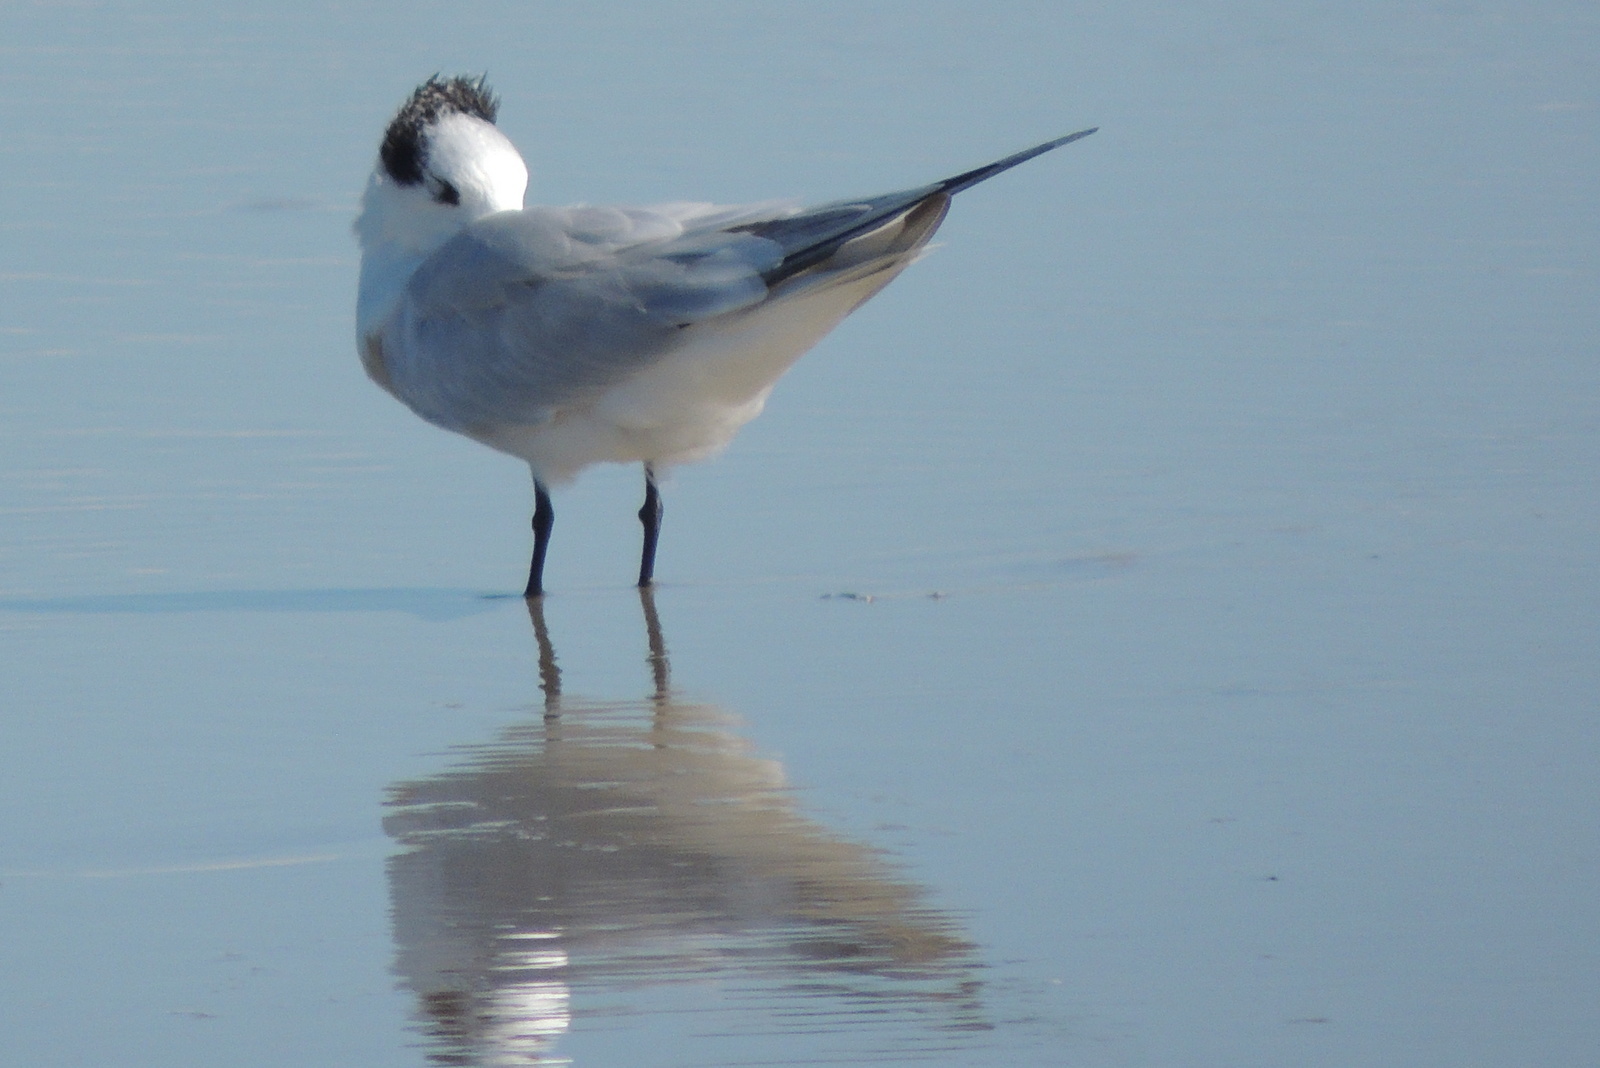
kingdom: Animalia
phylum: Chordata
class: Aves
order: Charadriiformes
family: Laridae
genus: Thalasseus
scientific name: Thalasseus maximus
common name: Royal tern
